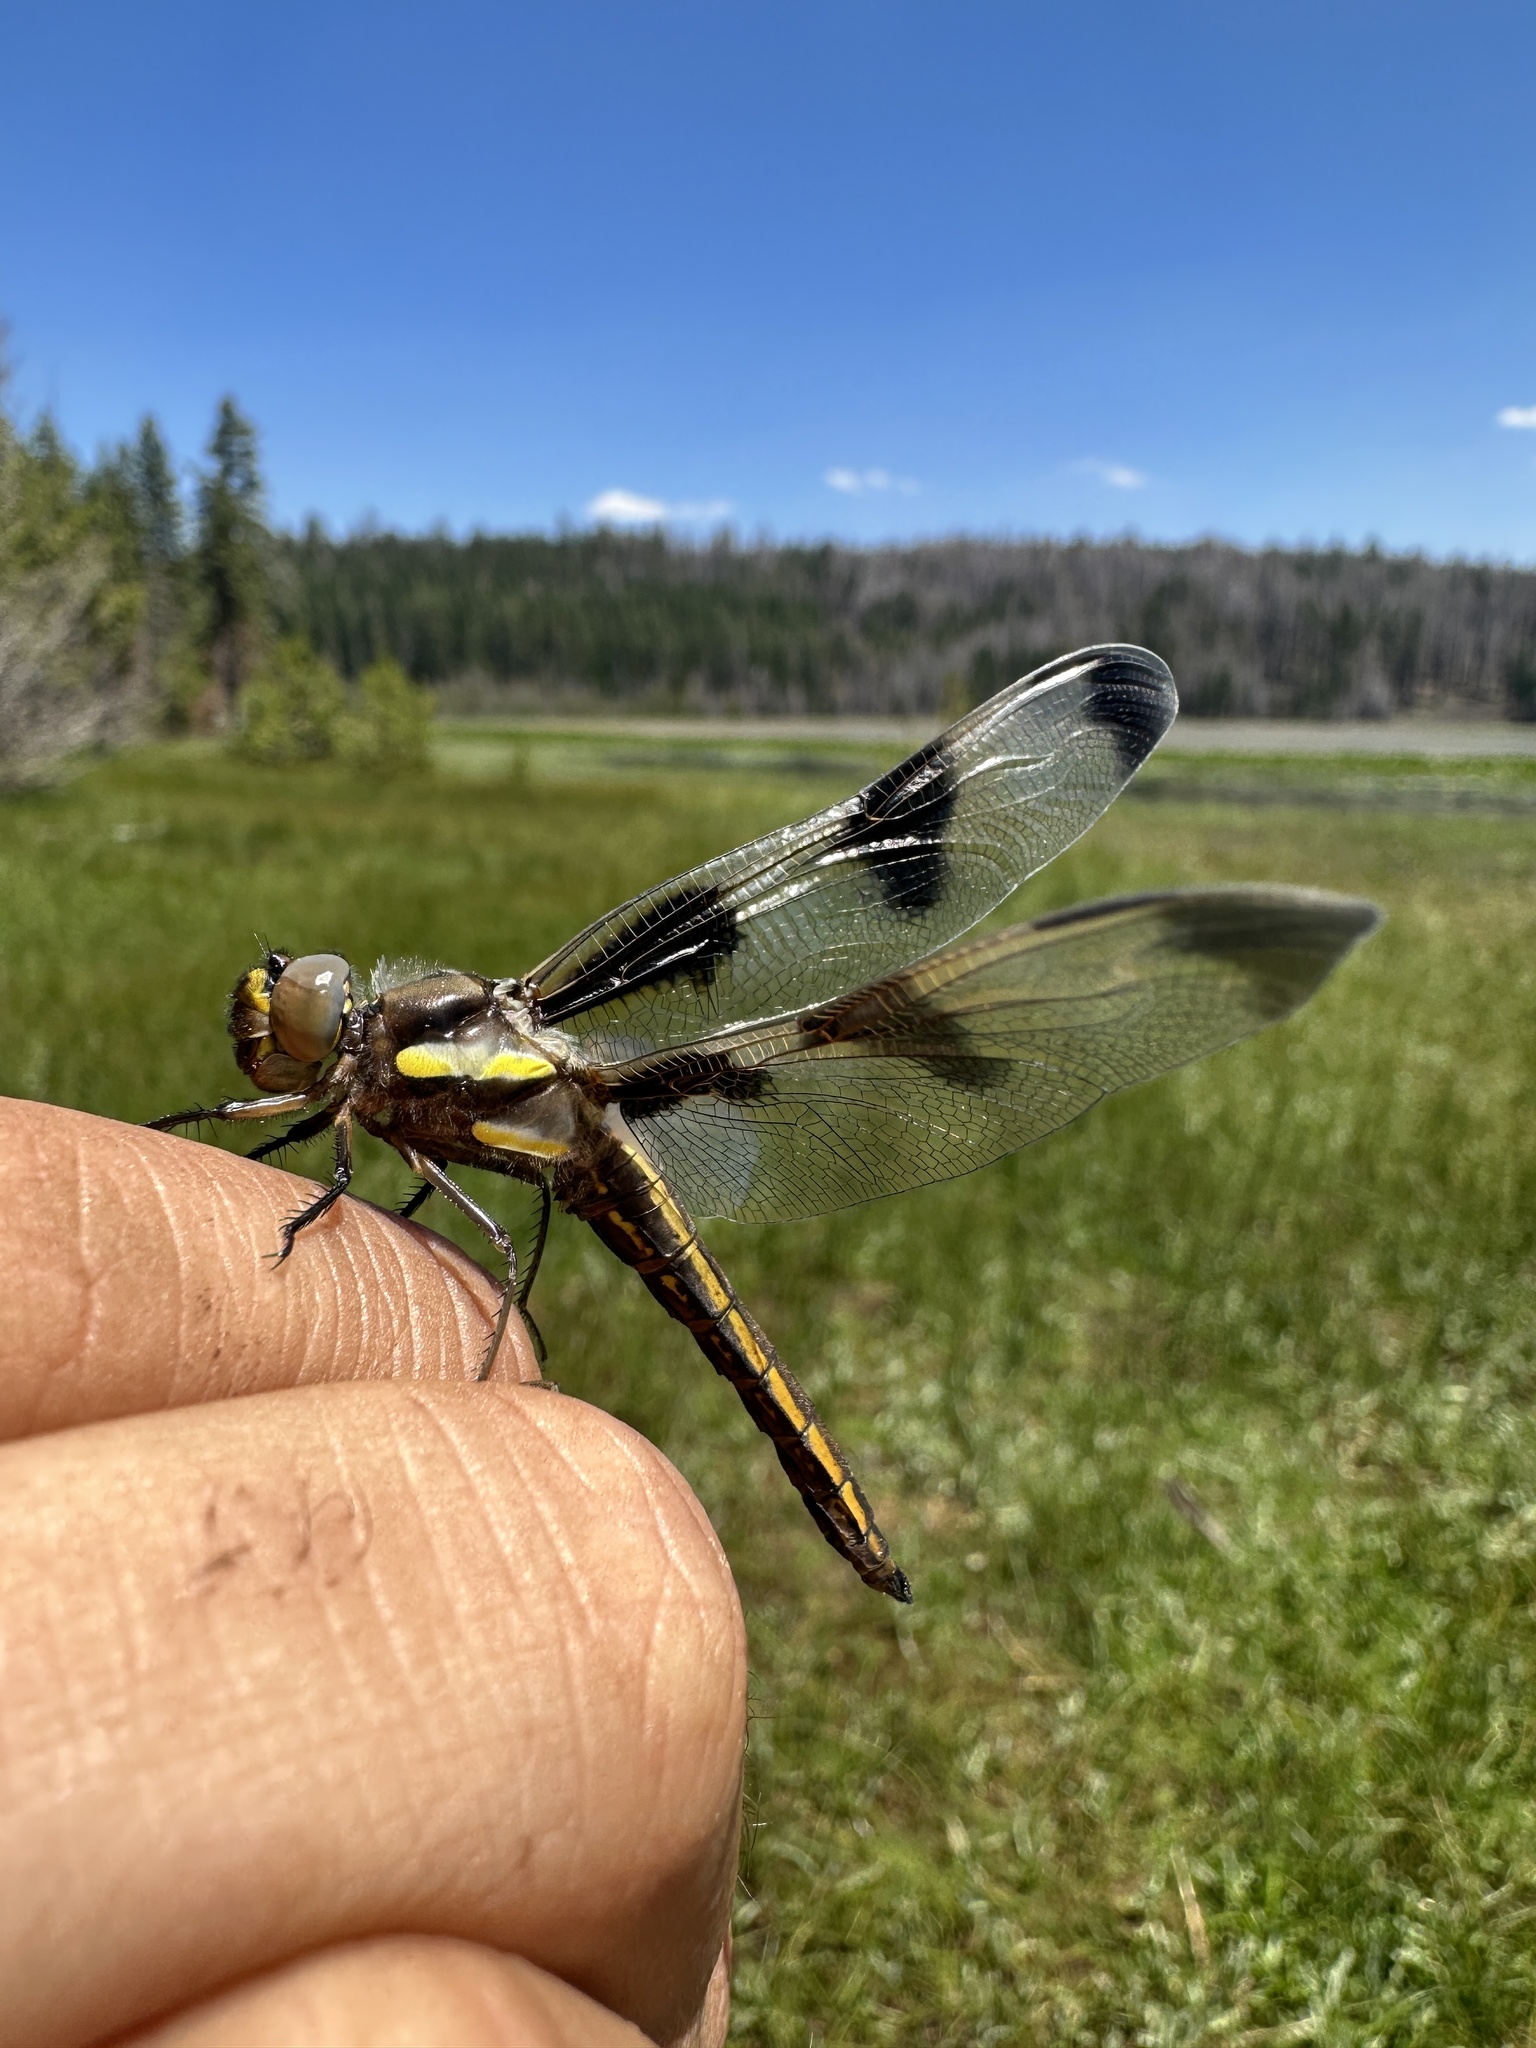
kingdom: Animalia
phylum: Arthropoda
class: Insecta
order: Odonata
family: Libellulidae
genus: Libellula
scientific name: Libellula pulchella
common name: Twelve-spotted skimmer
